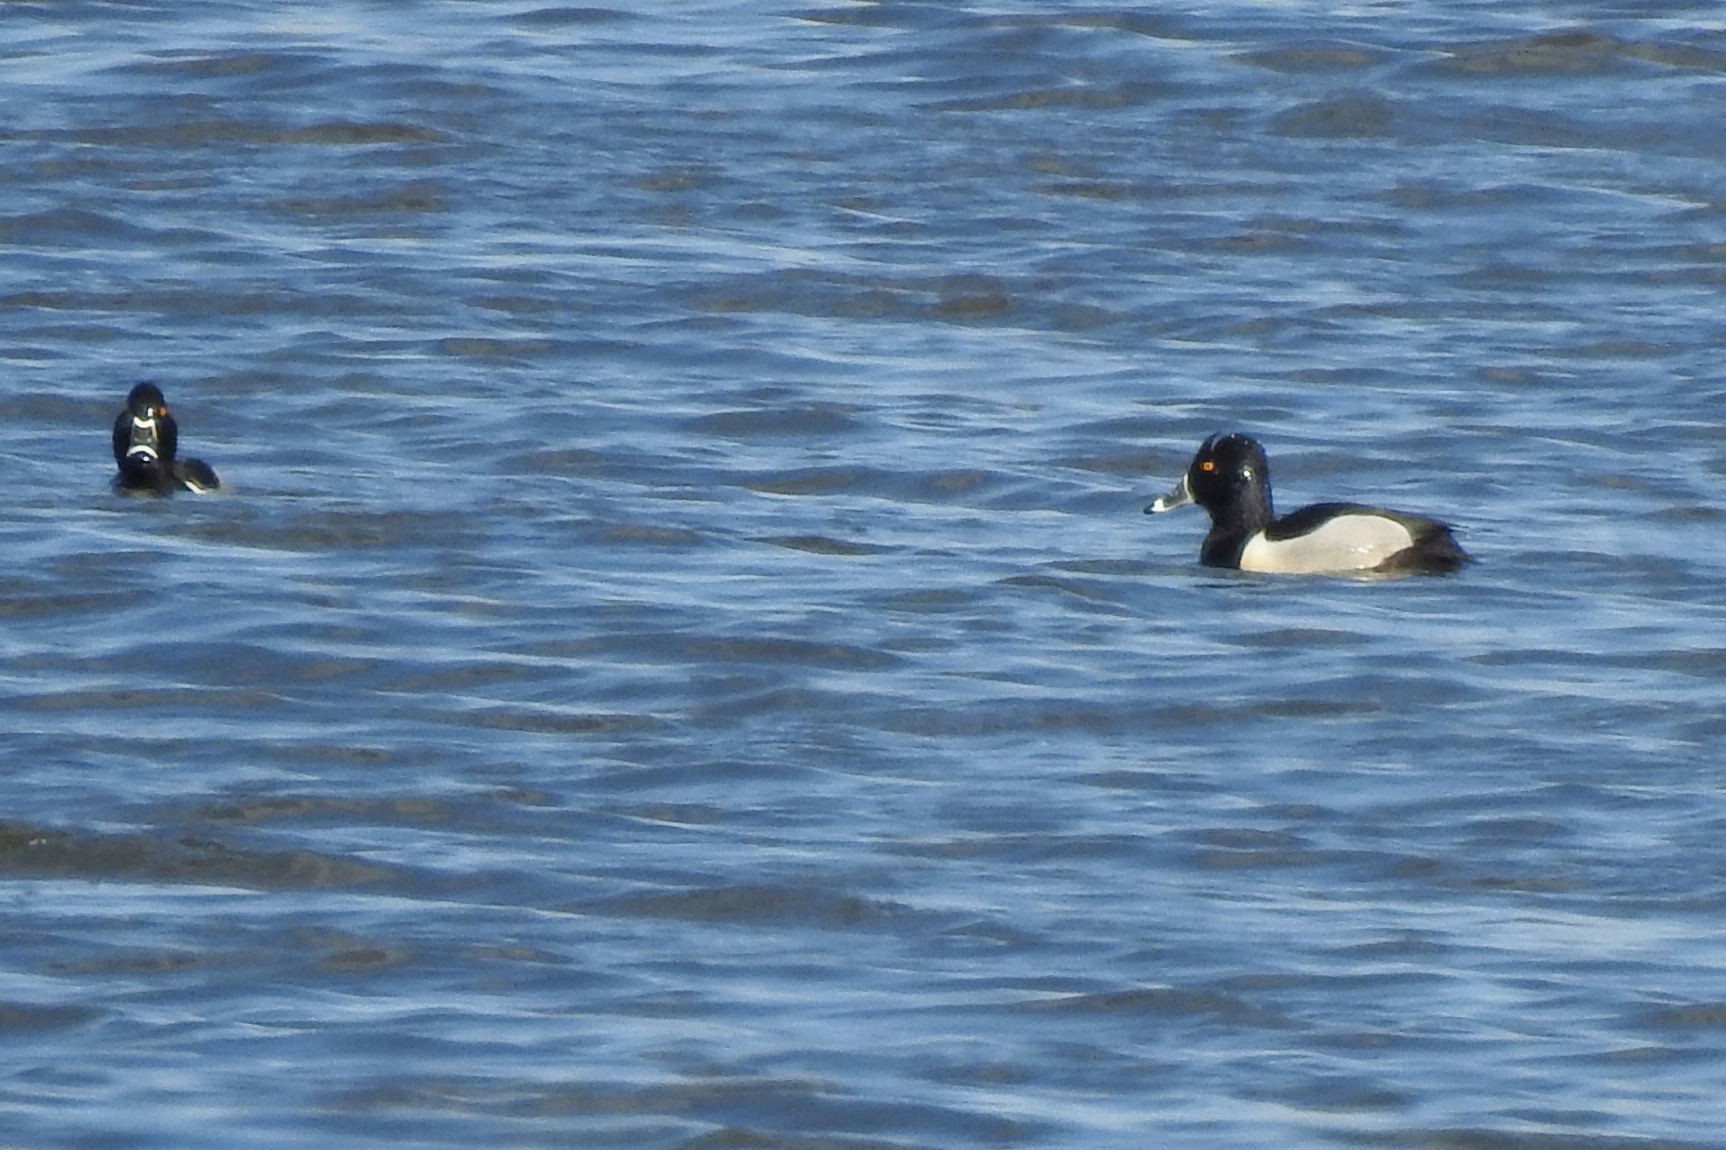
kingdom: Animalia
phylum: Chordata
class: Aves
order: Anseriformes
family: Anatidae
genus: Aythya
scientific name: Aythya collaris
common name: Ring-necked duck
